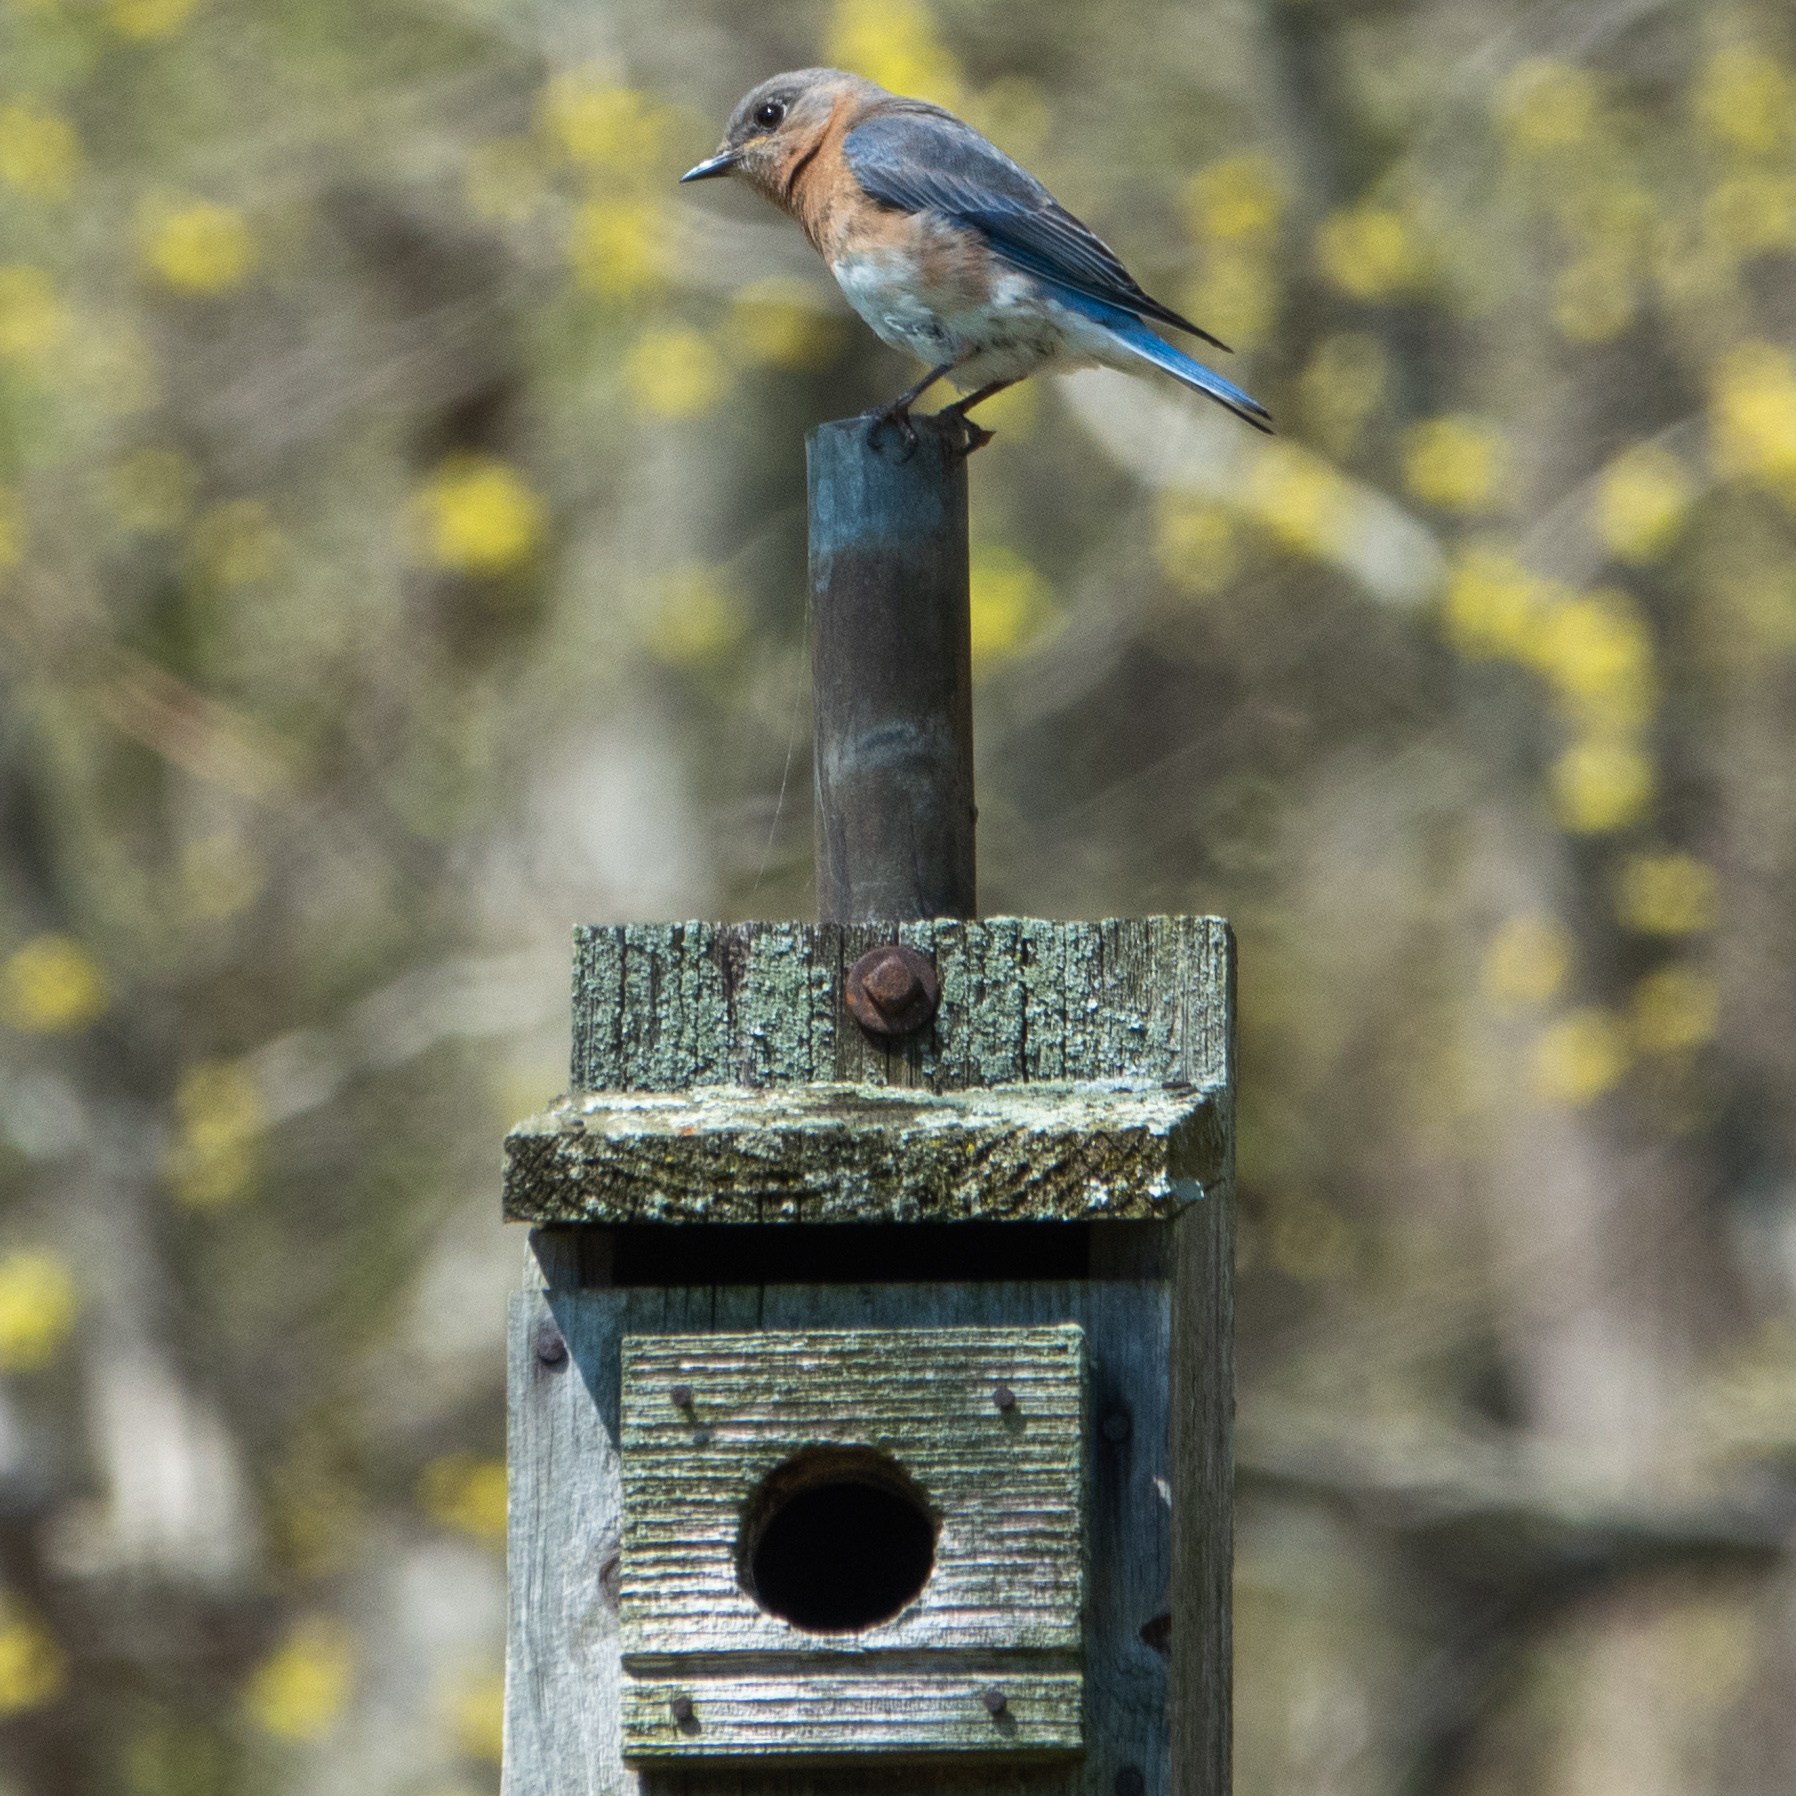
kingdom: Animalia
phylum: Chordata
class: Aves
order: Passeriformes
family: Turdidae
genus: Sialia
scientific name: Sialia sialis
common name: Eastern bluebird
